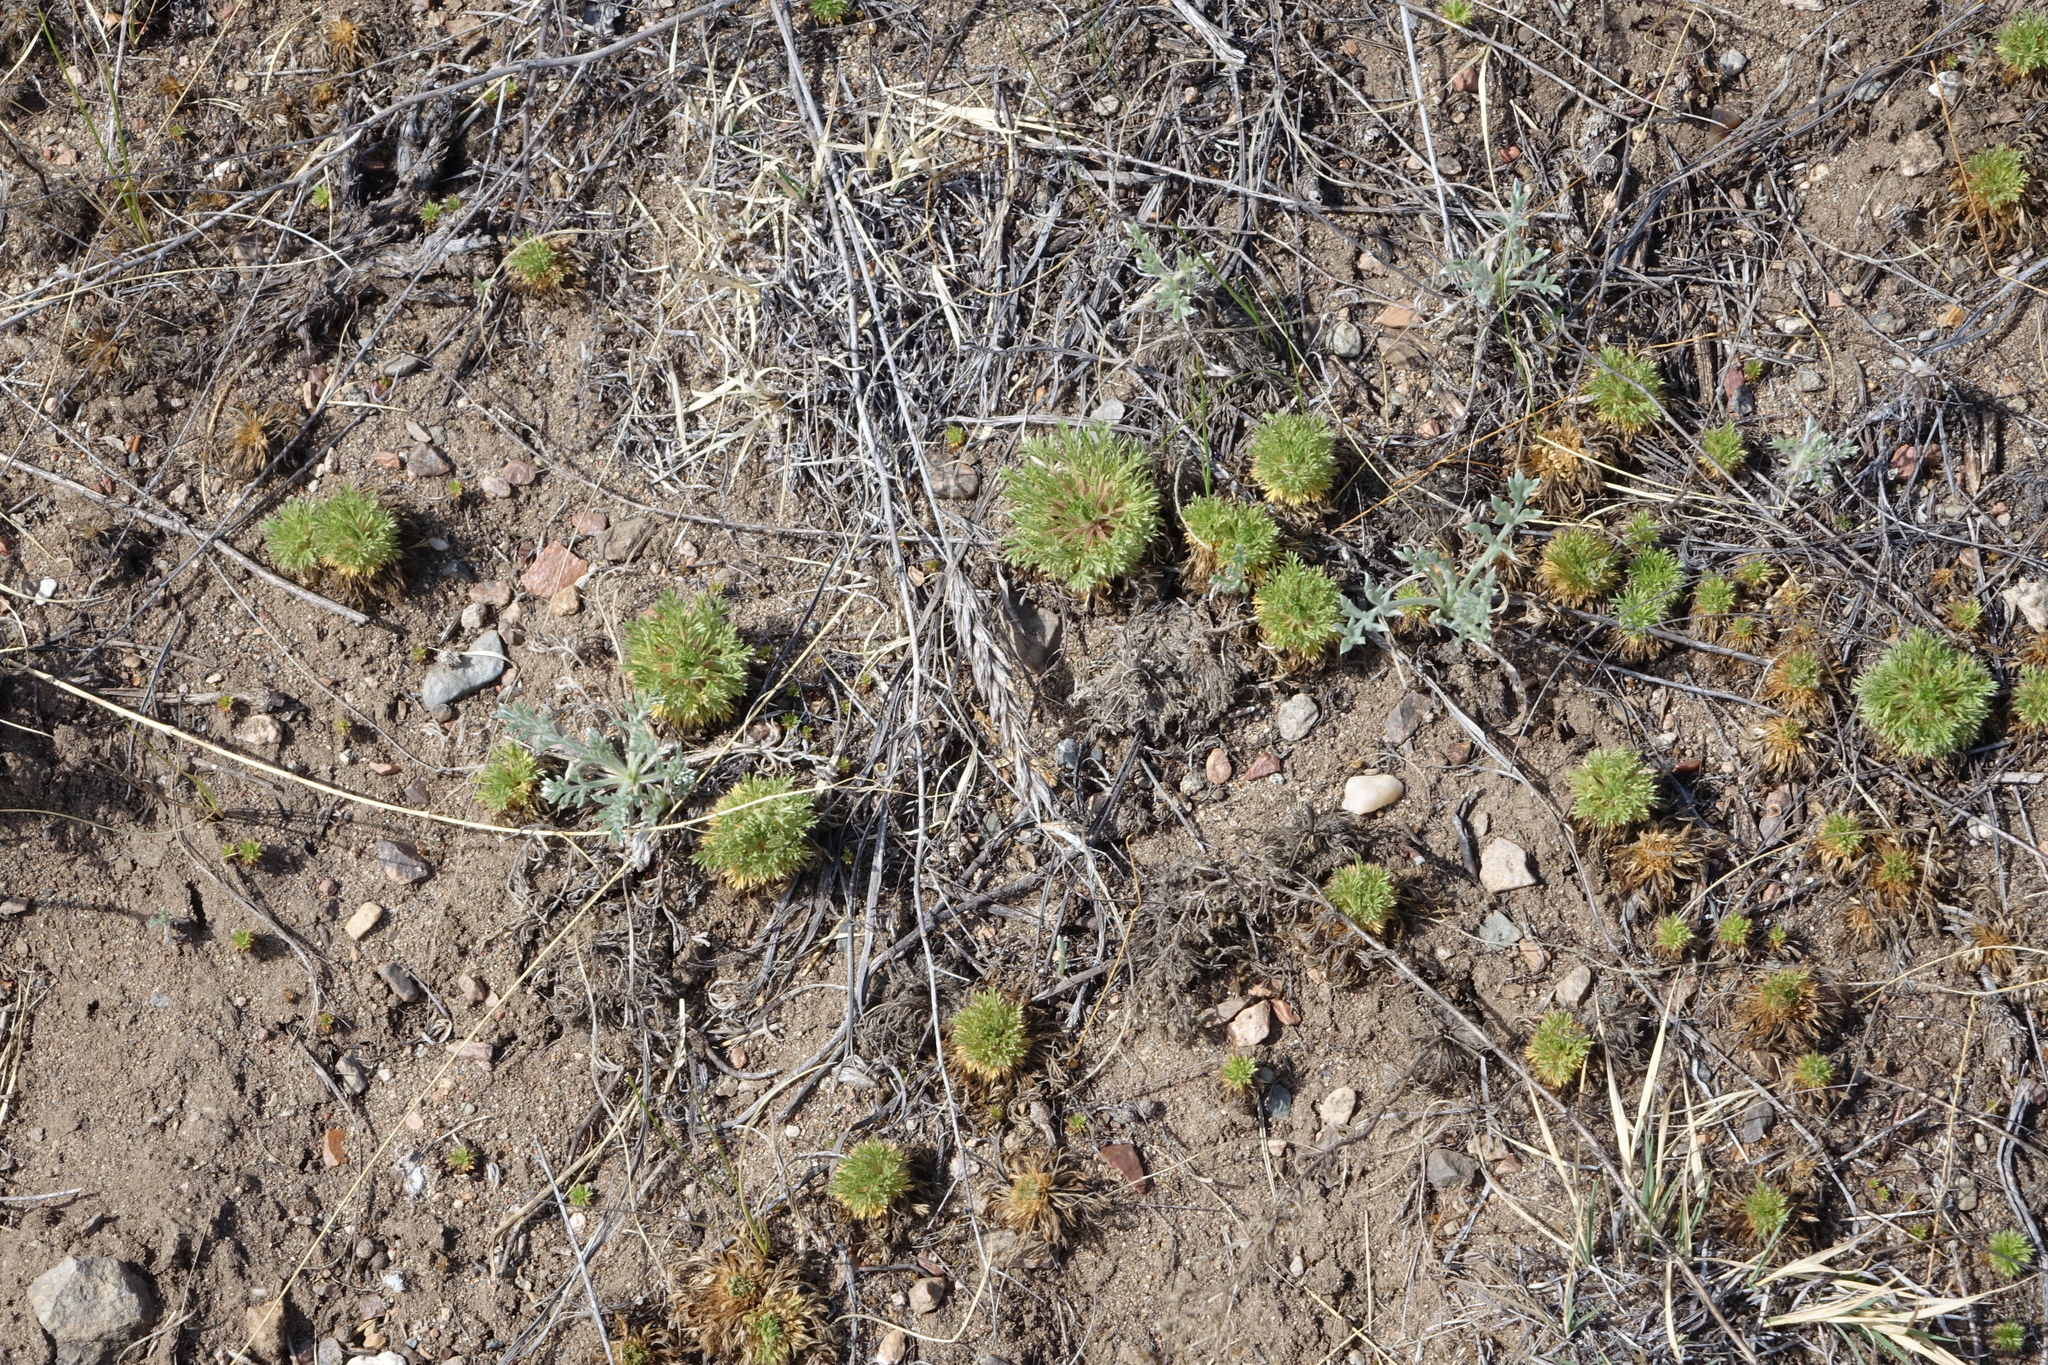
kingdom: Plantae
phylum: Tracheophyta
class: Magnoliopsida
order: Rosales
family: Rosaceae
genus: Chamaerhodos
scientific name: Chamaerhodos erecta
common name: American chamaerhodos
